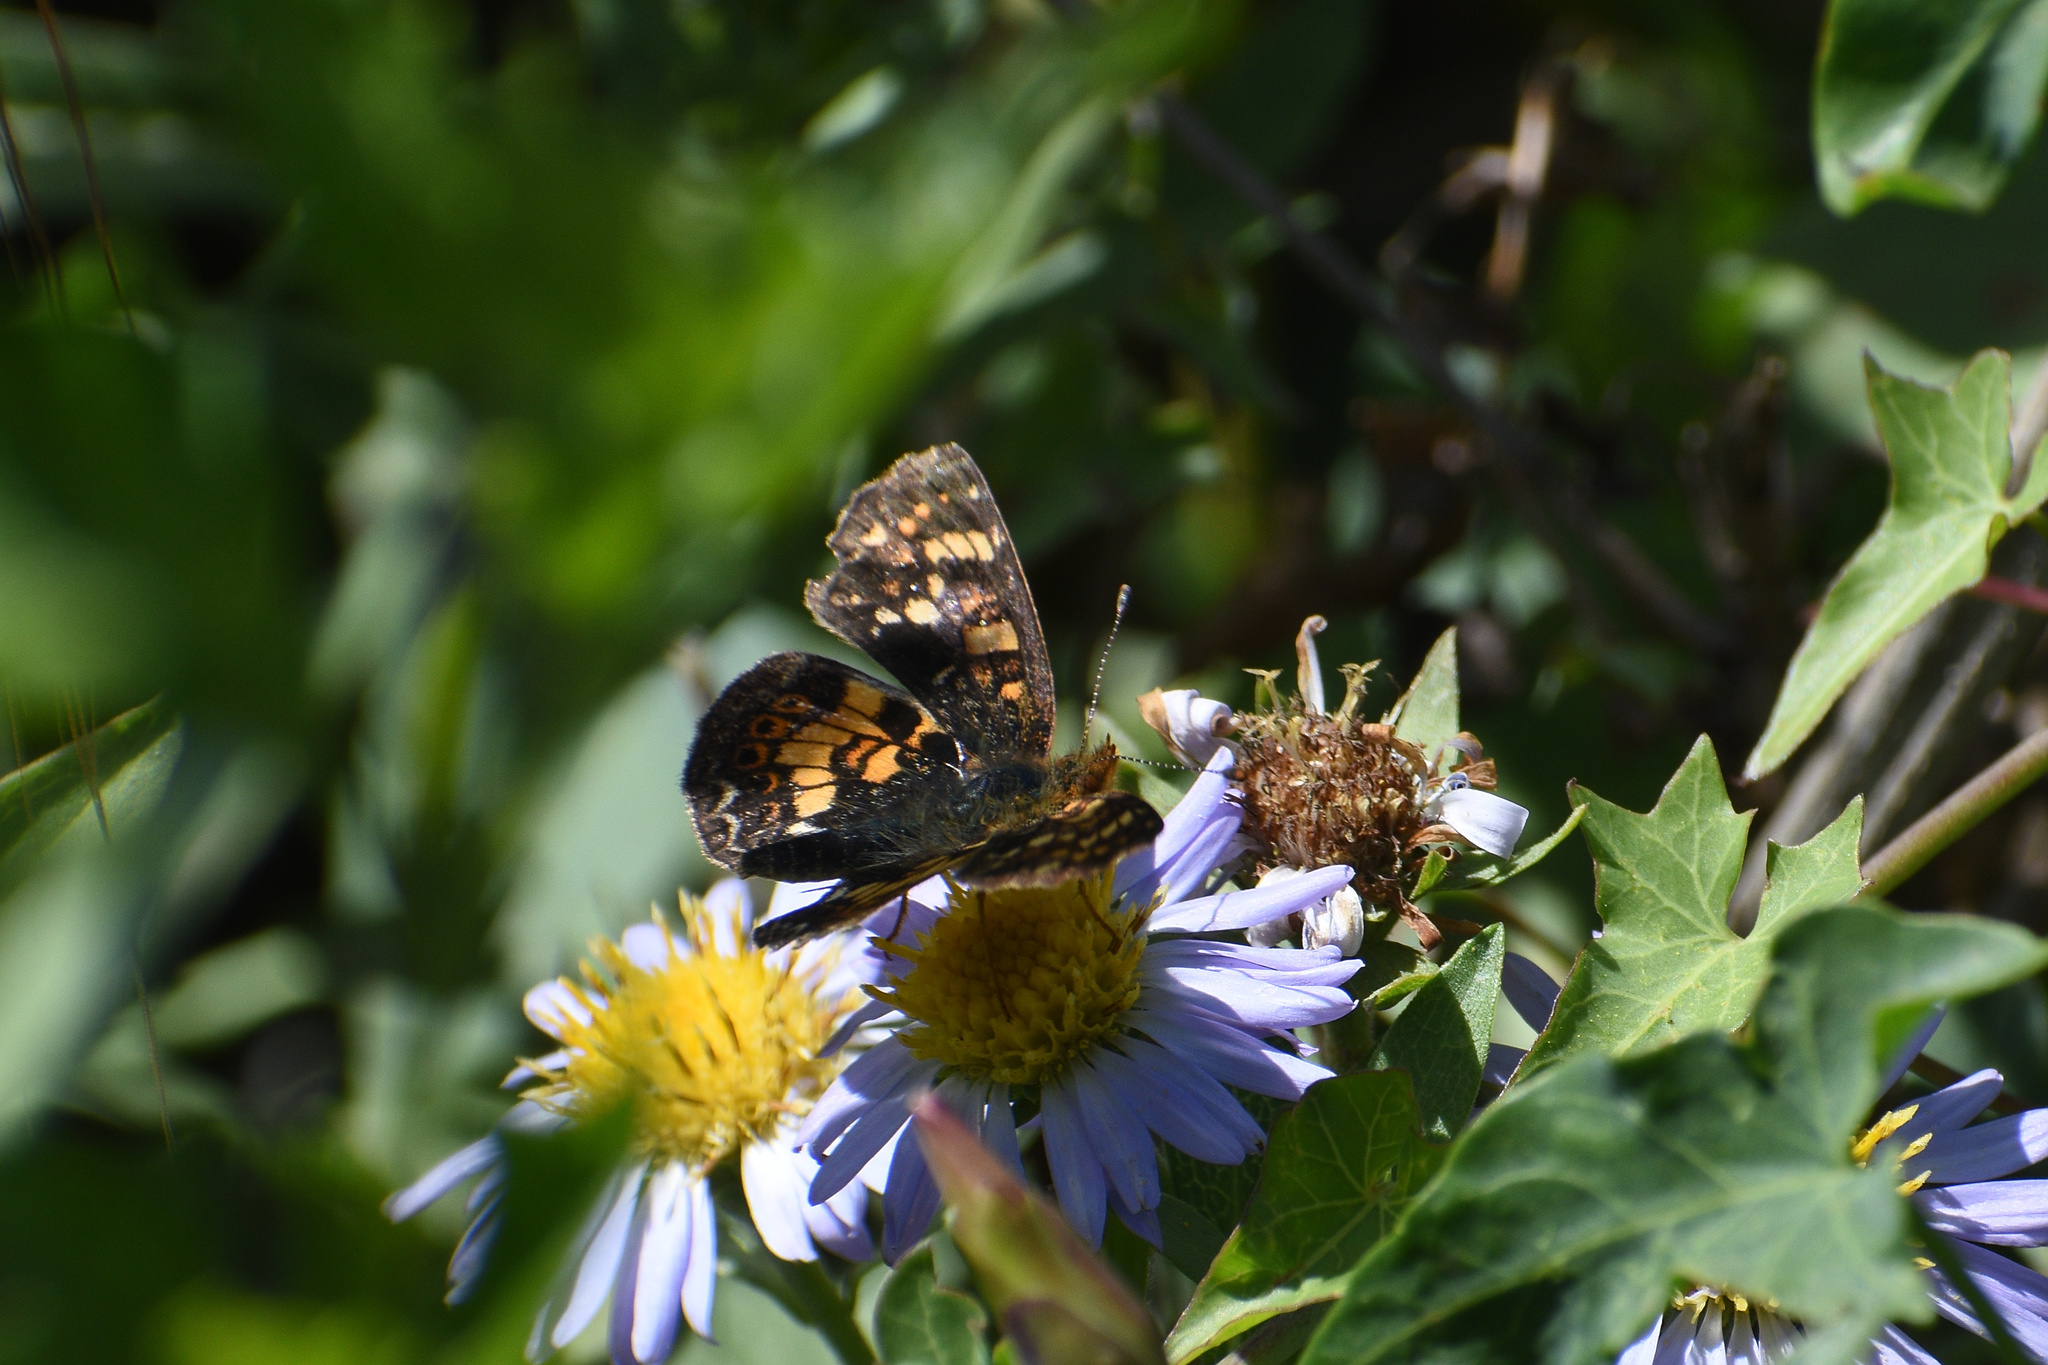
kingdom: Animalia
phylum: Arthropoda
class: Insecta
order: Lepidoptera
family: Nymphalidae
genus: Phyciodes
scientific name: Phyciodes tharos
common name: Pearl crescent
